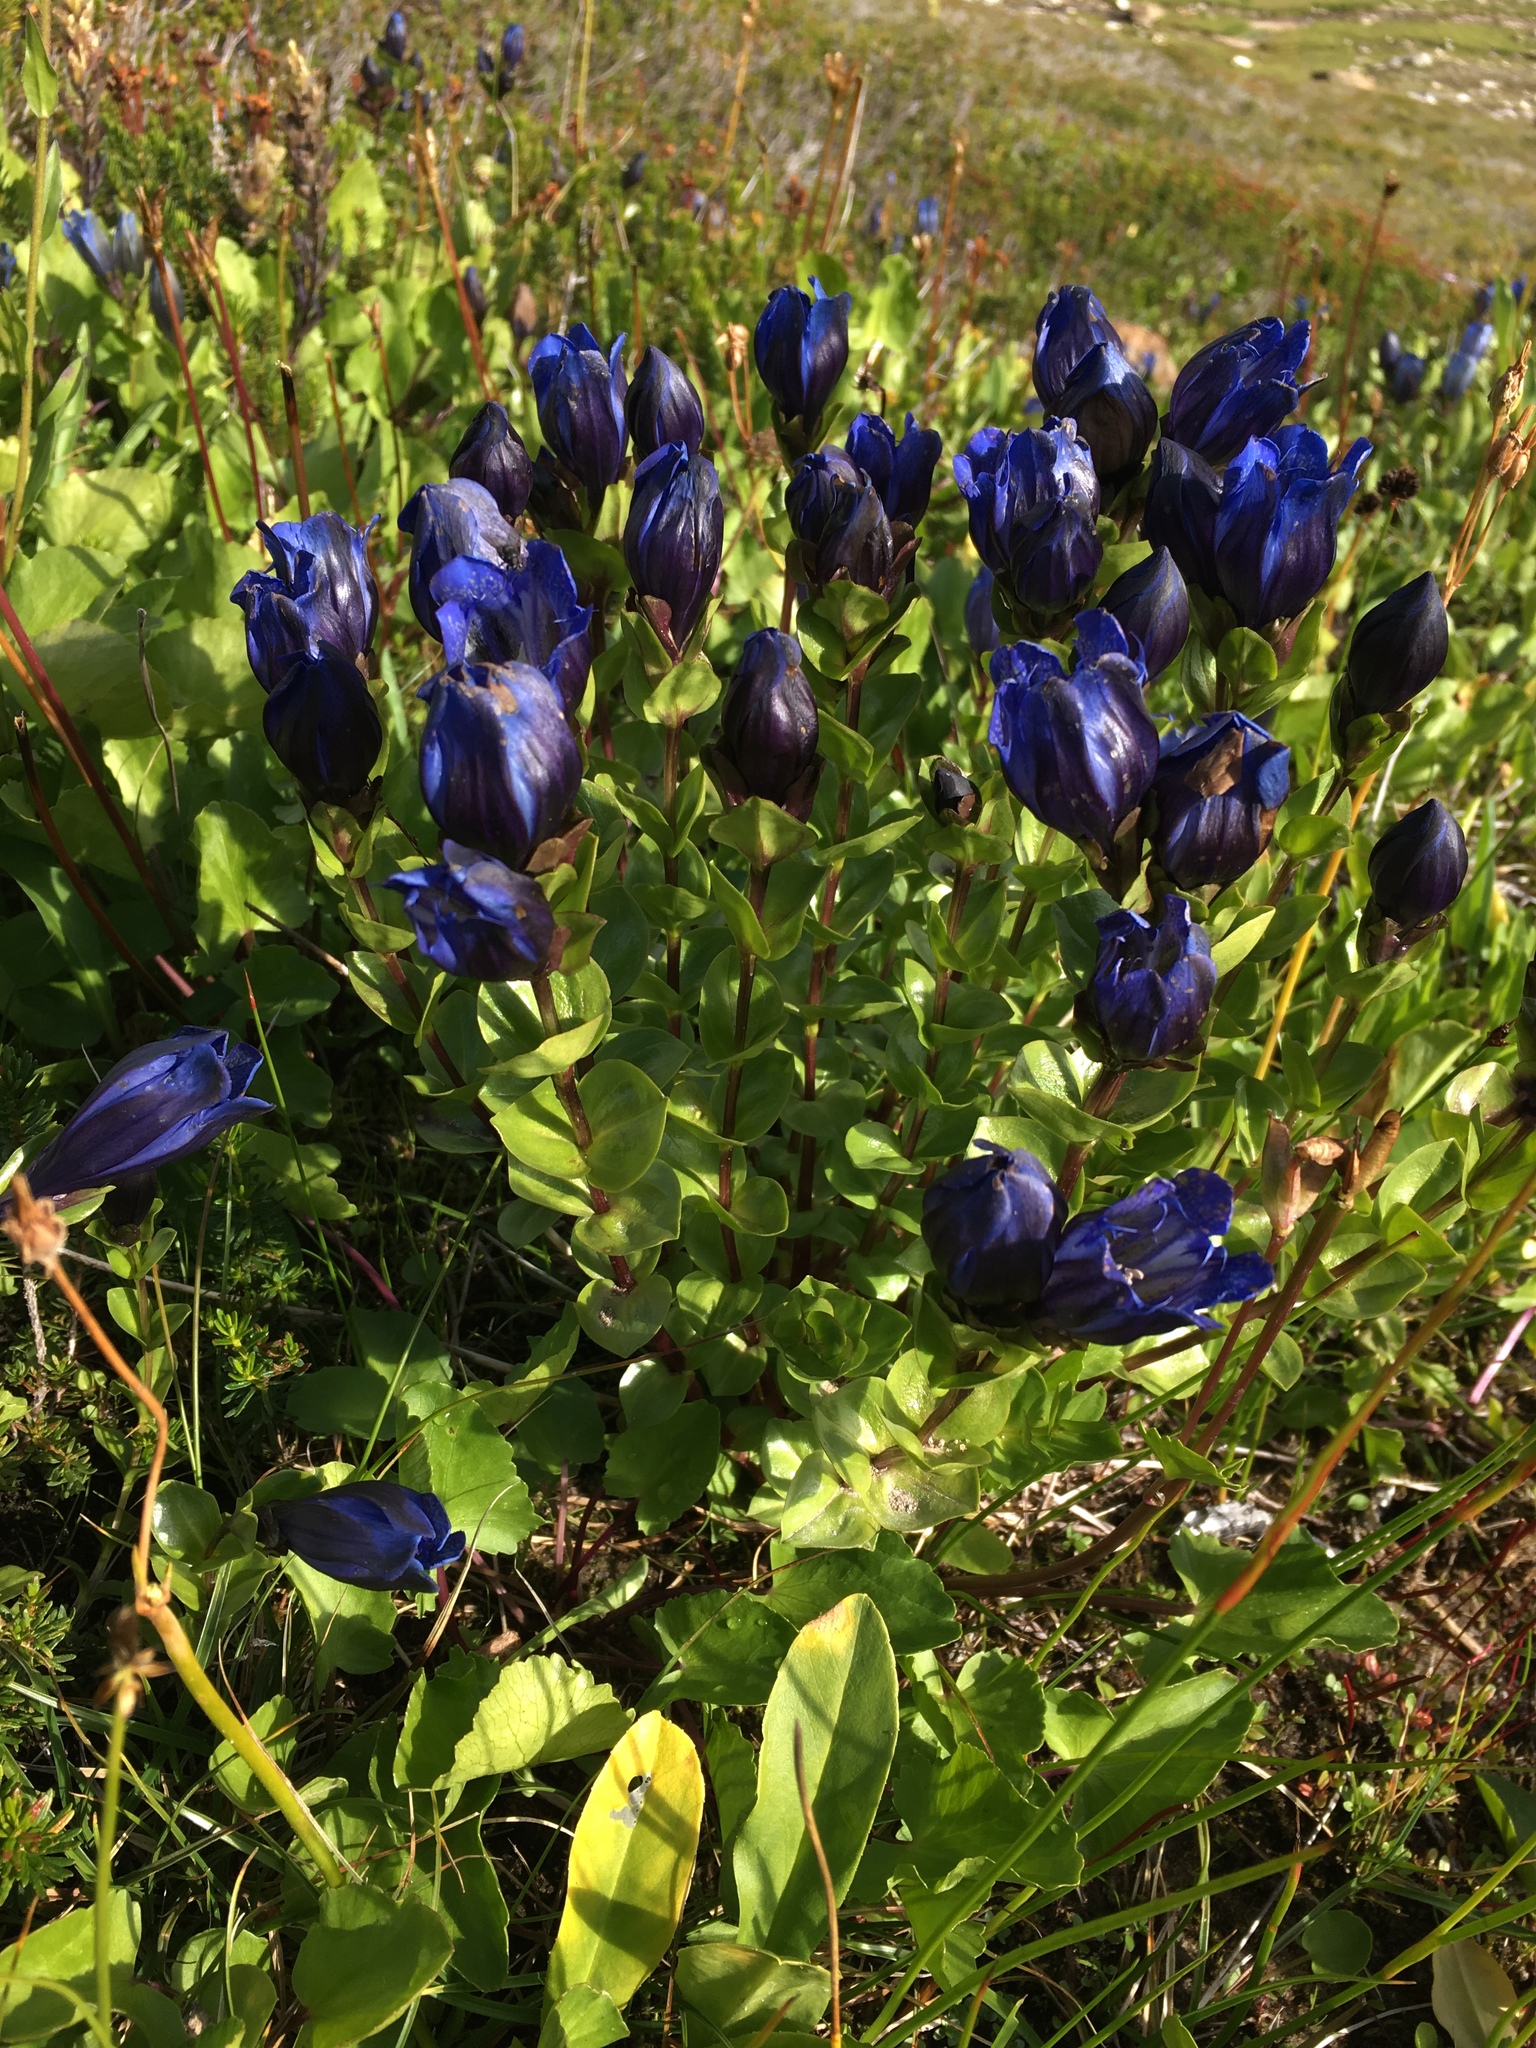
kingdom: Plantae
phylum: Tracheophyta
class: Magnoliopsida
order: Gentianales
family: Gentianaceae
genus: Gentiana
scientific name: Gentiana calycosa
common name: Rainier pleated gentian
